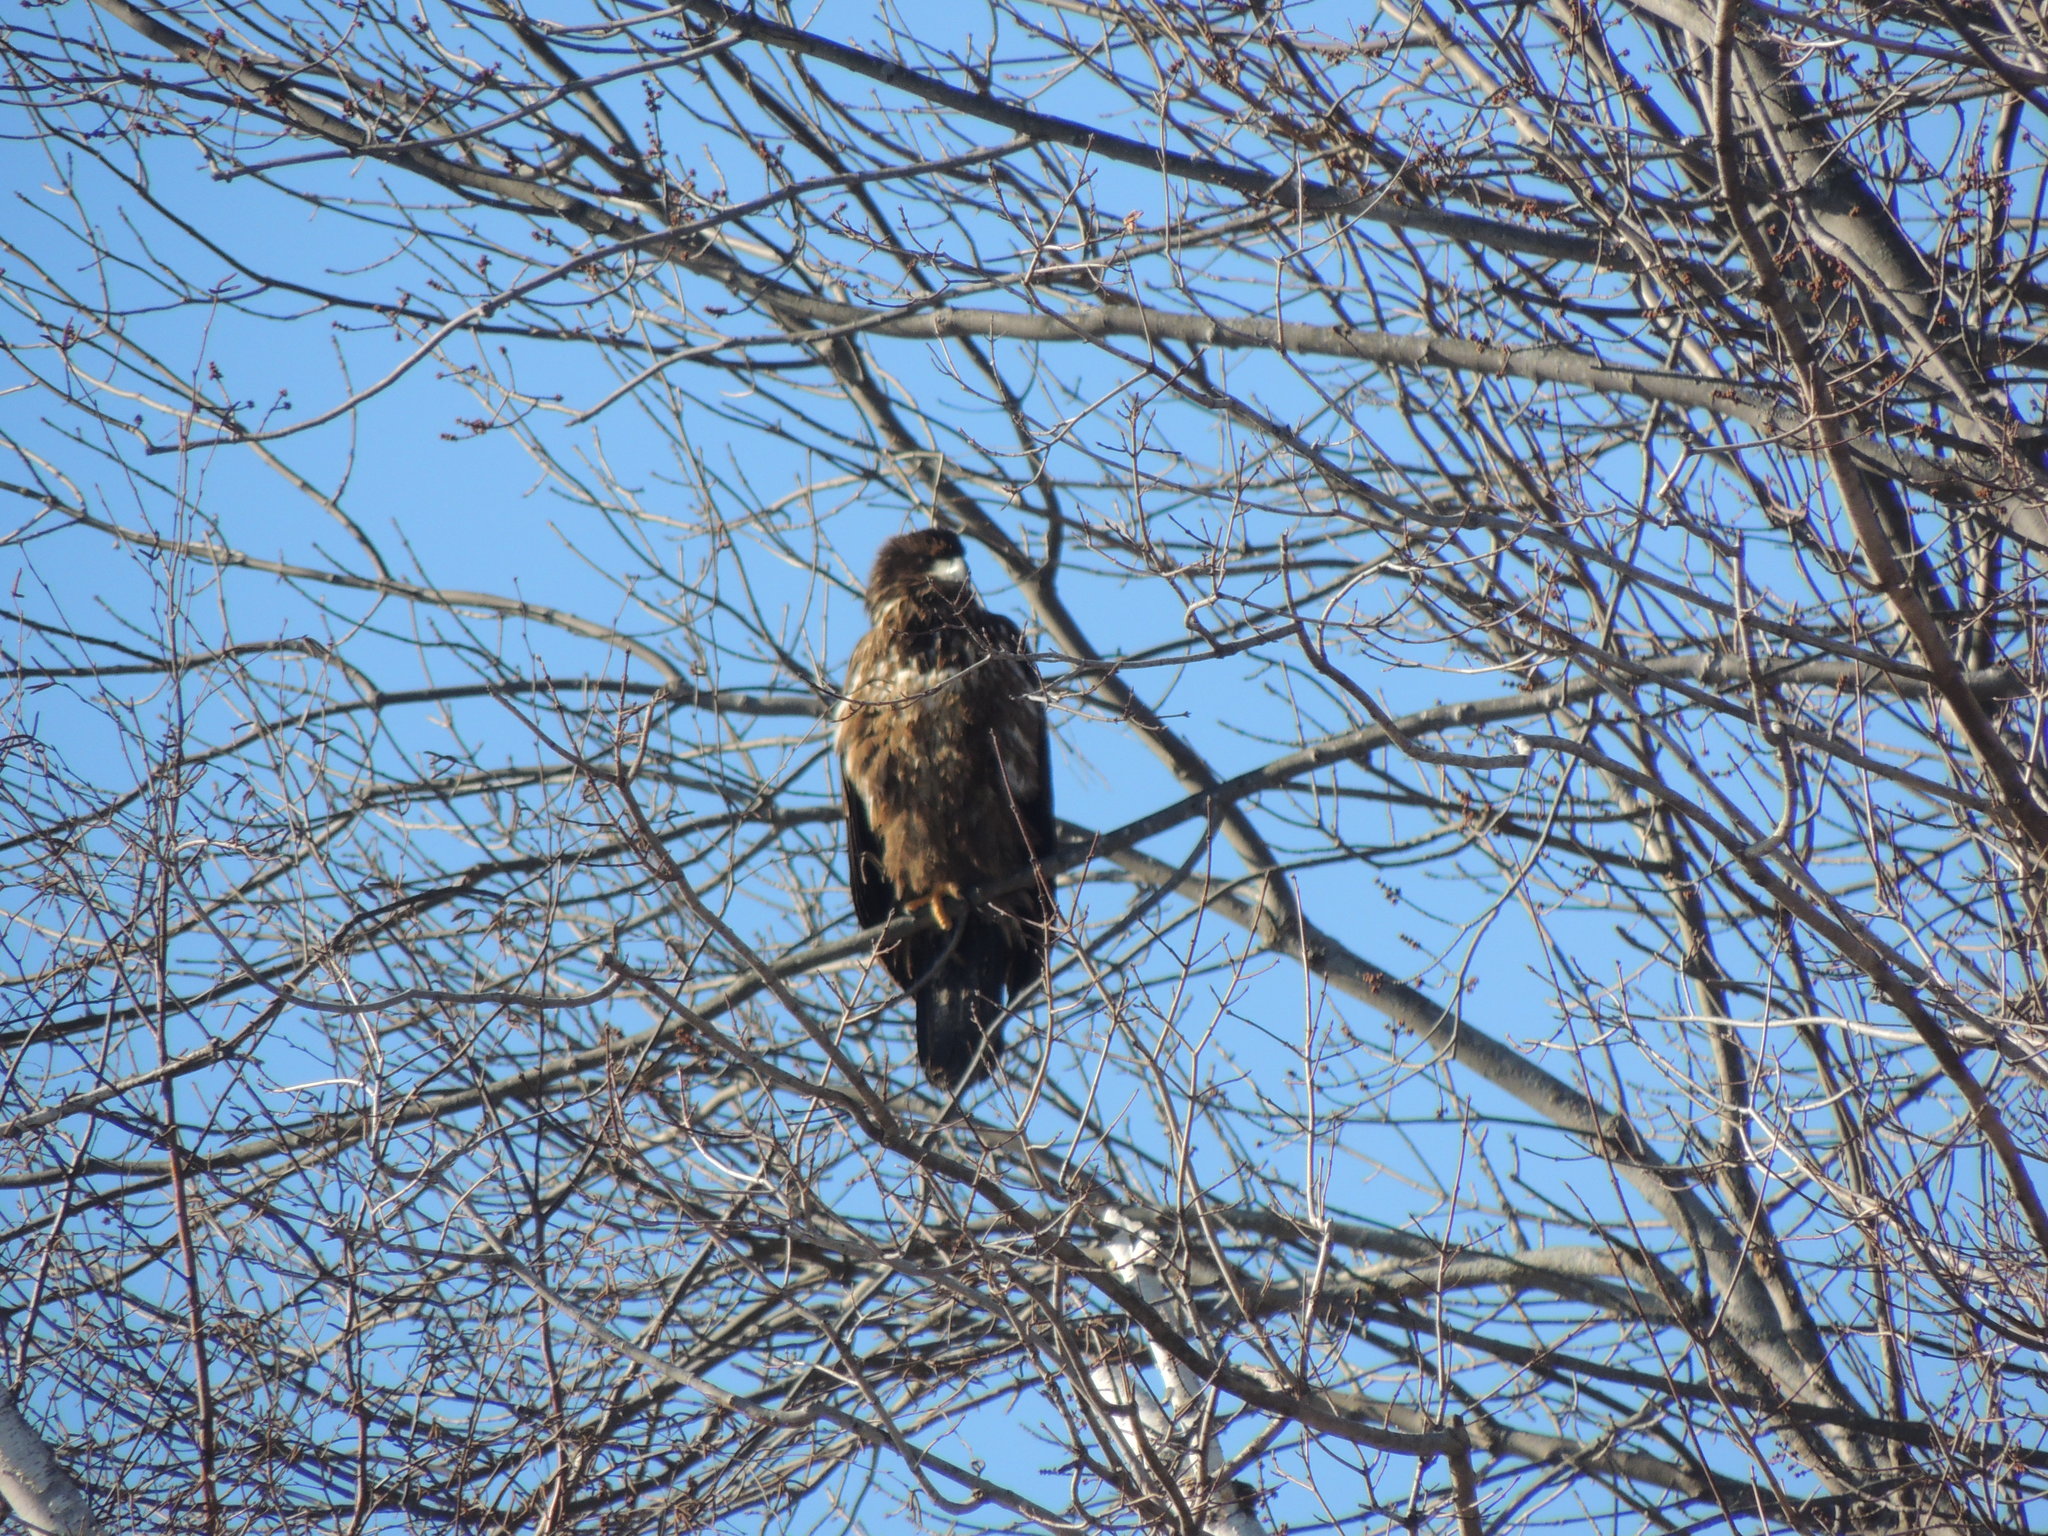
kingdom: Animalia
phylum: Chordata
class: Aves
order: Accipitriformes
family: Accipitridae
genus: Haliaeetus
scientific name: Haliaeetus leucocephalus
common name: Bald eagle
